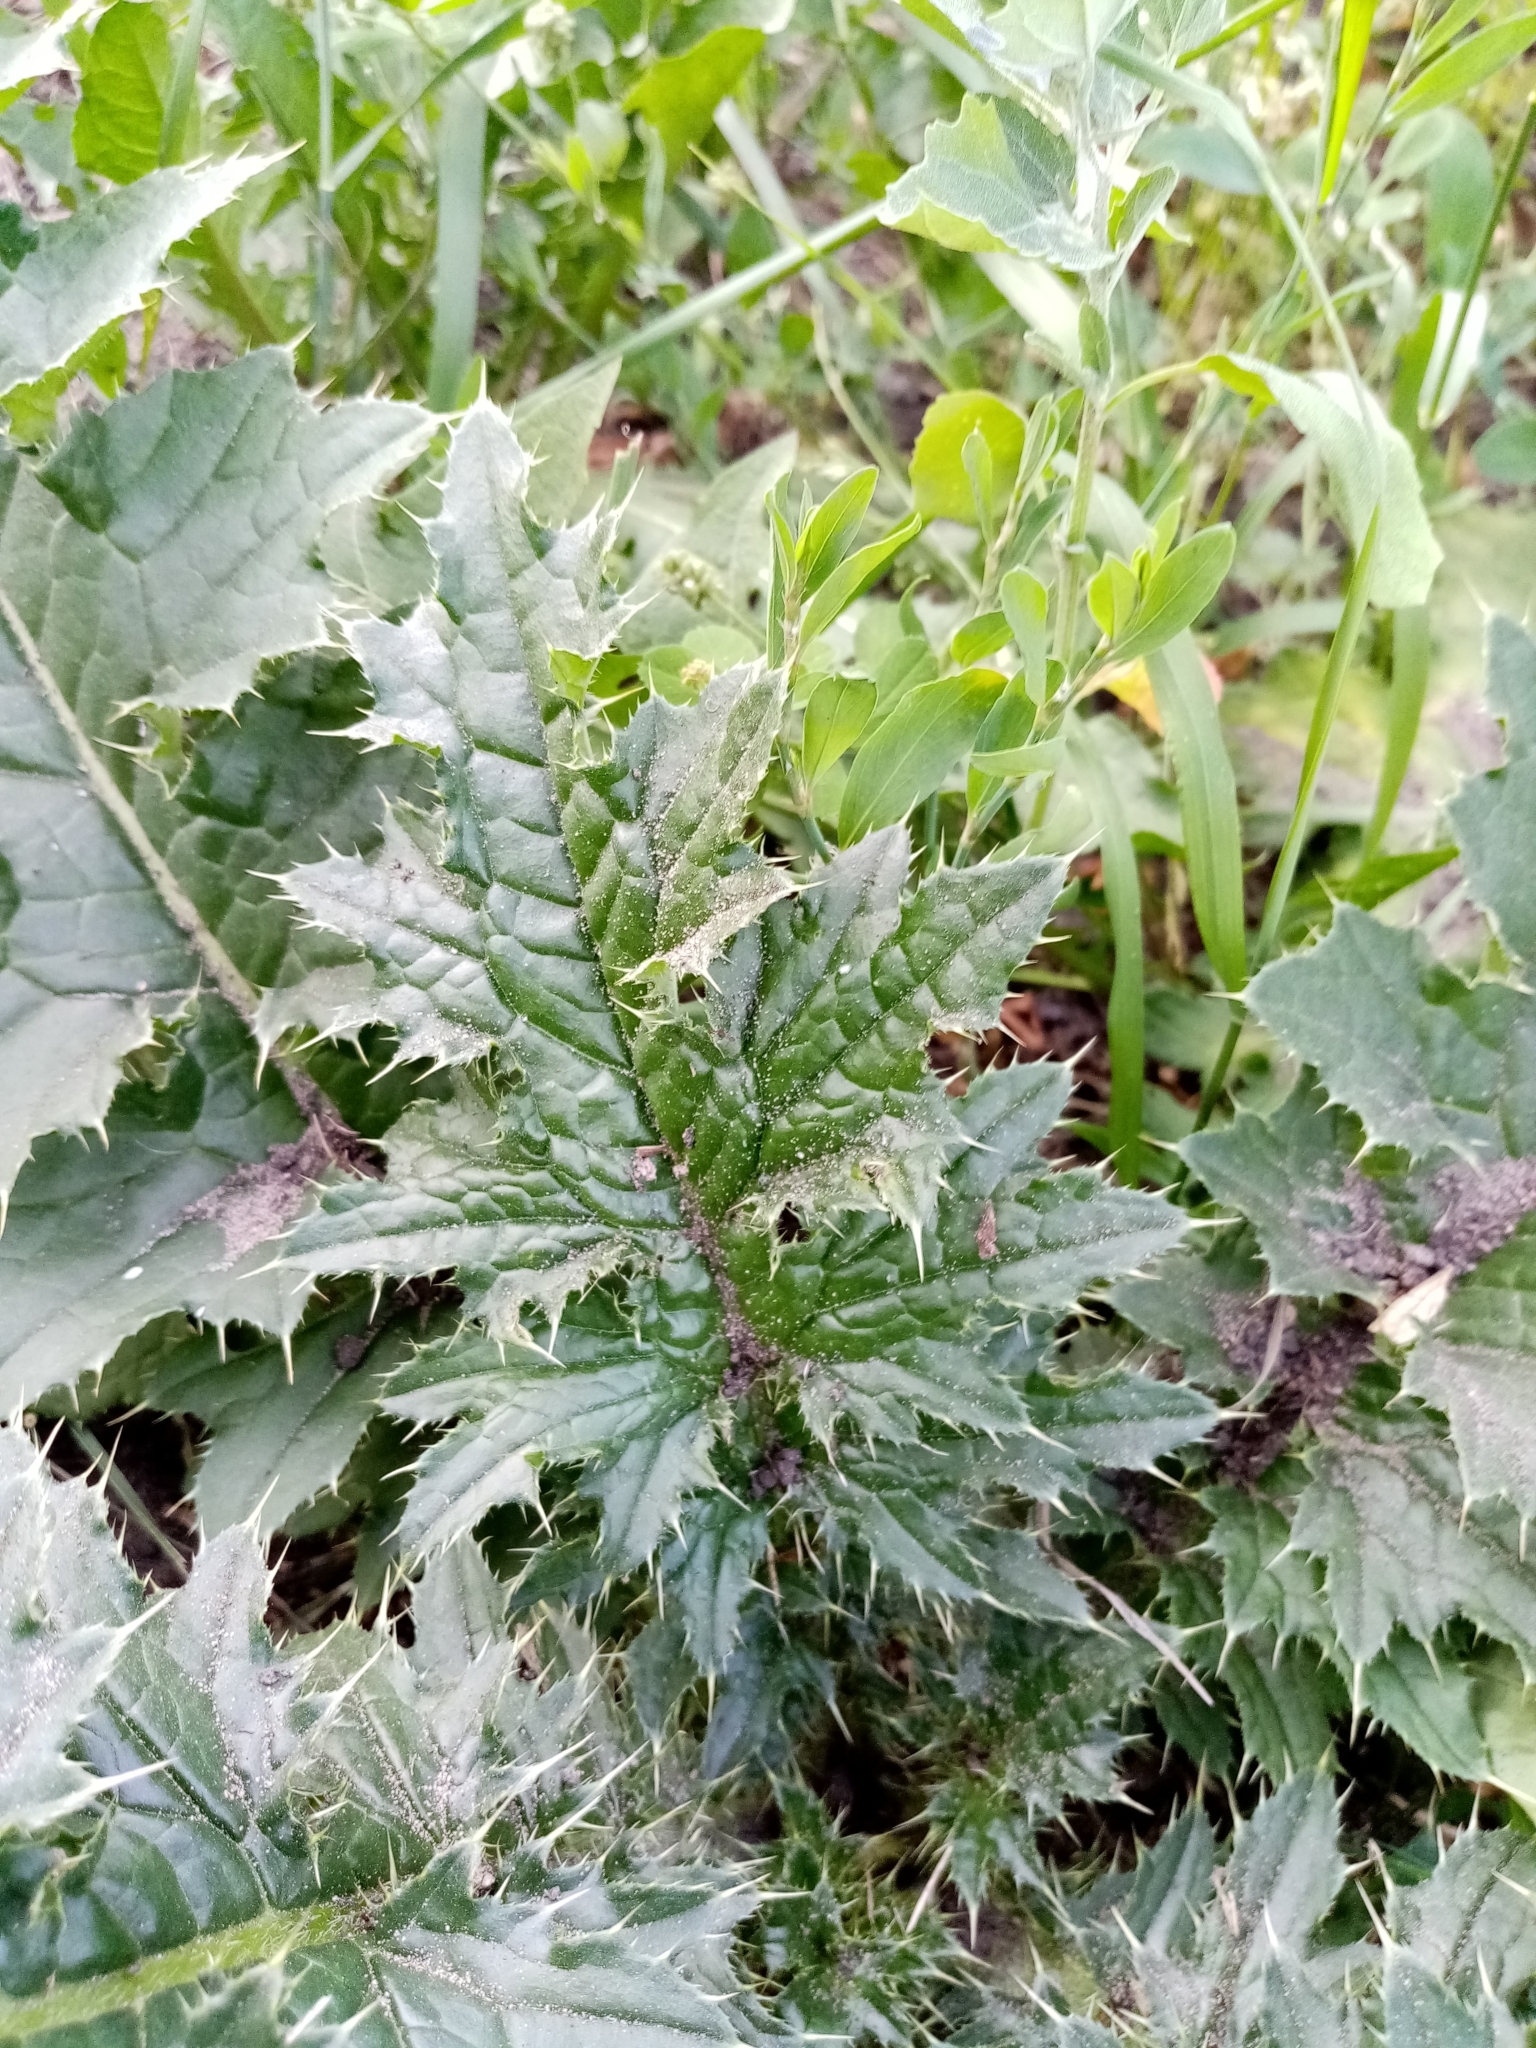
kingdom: Plantae
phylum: Tracheophyta
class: Magnoliopsida
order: Asterales
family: Asteraceae
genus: Carduus
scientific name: Carduus crispus
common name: Welted thistle
